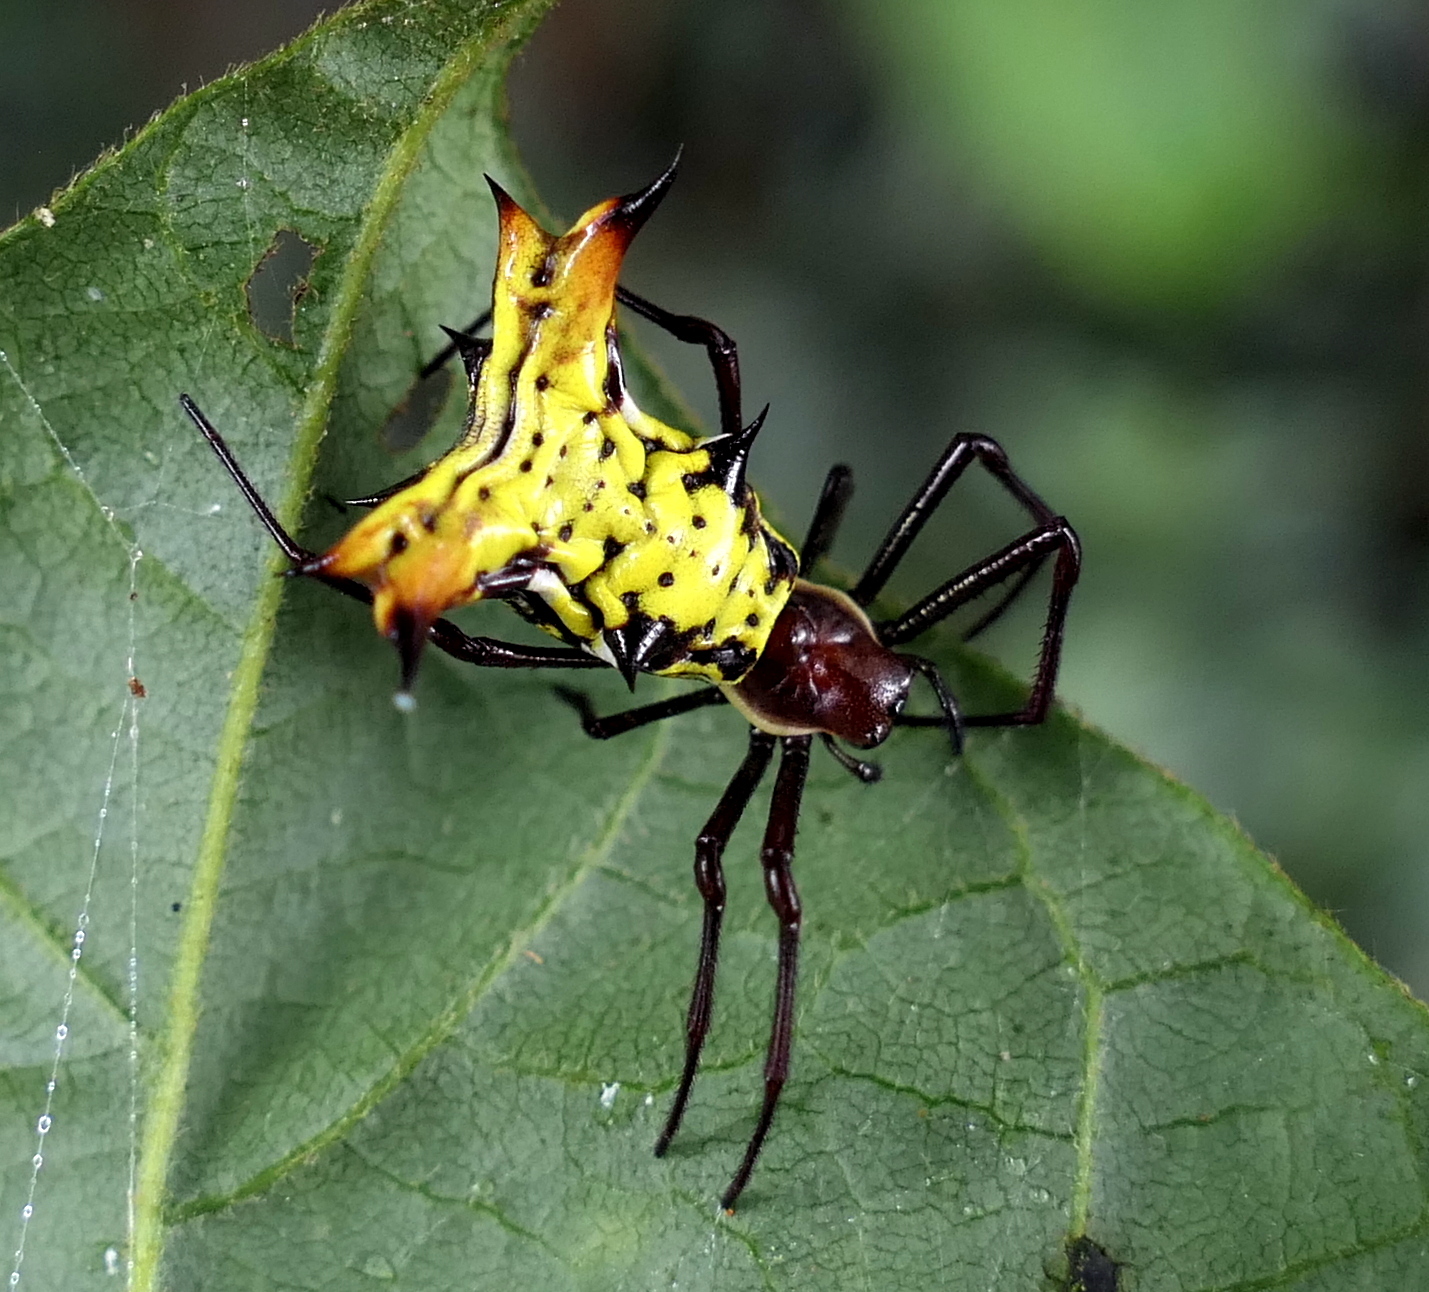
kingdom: Animalia
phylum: Arthropoda
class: Arachnida
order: Araneae
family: Araneidae
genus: Micrathena
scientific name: Micrathena fissispina
